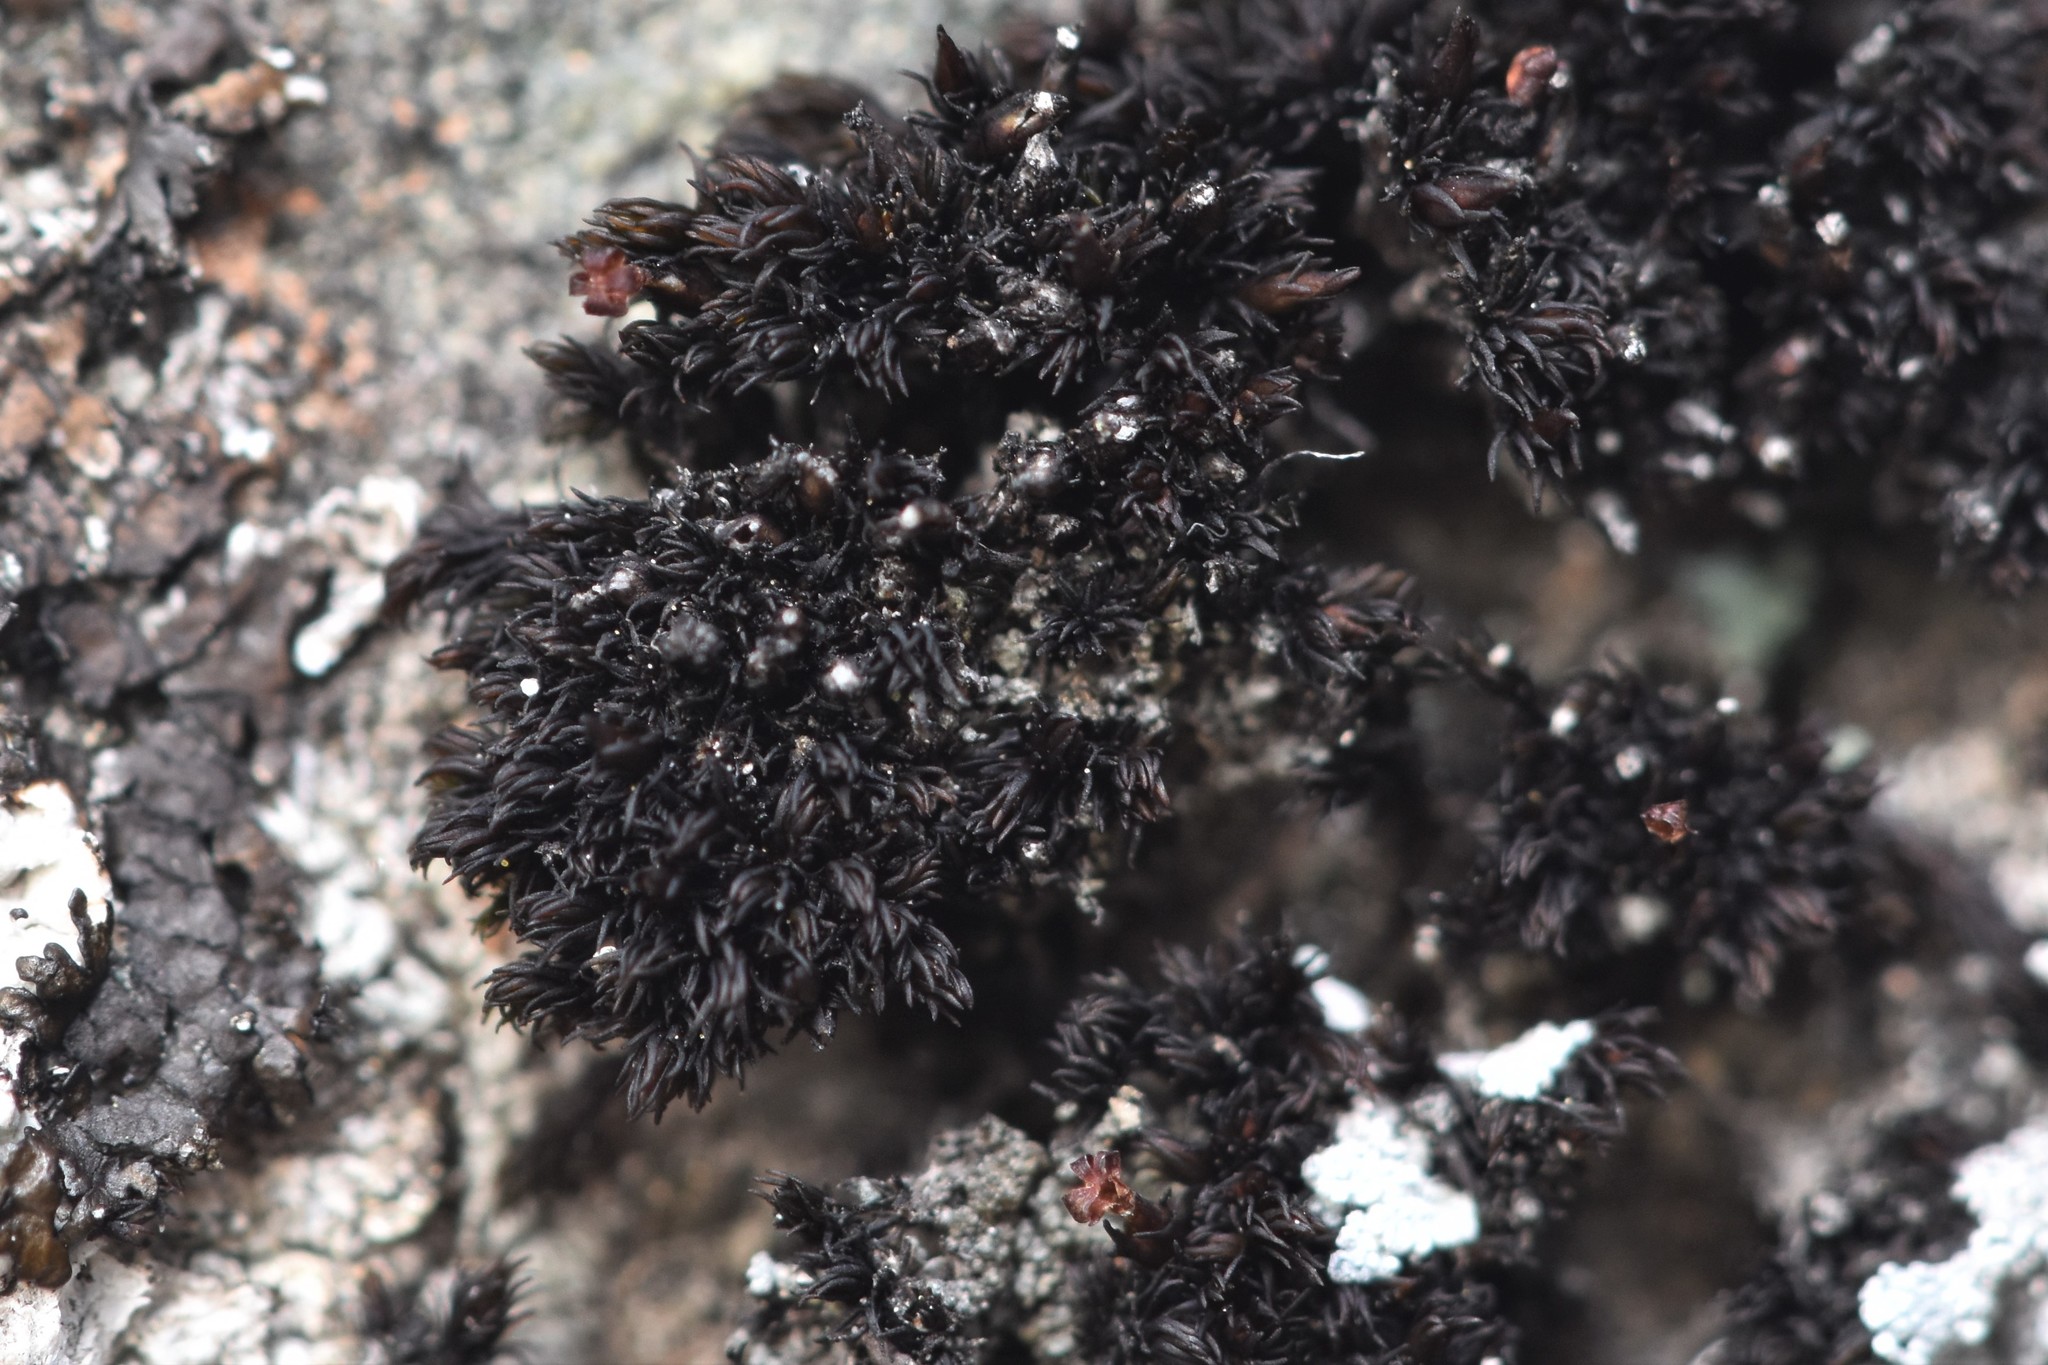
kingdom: Plantae
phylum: Bryophyta
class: Andreaeopsida
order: Andreaeales
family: Andreaeaceae
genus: Andreaea
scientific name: Andreaea rupestris
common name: Black rock moss
